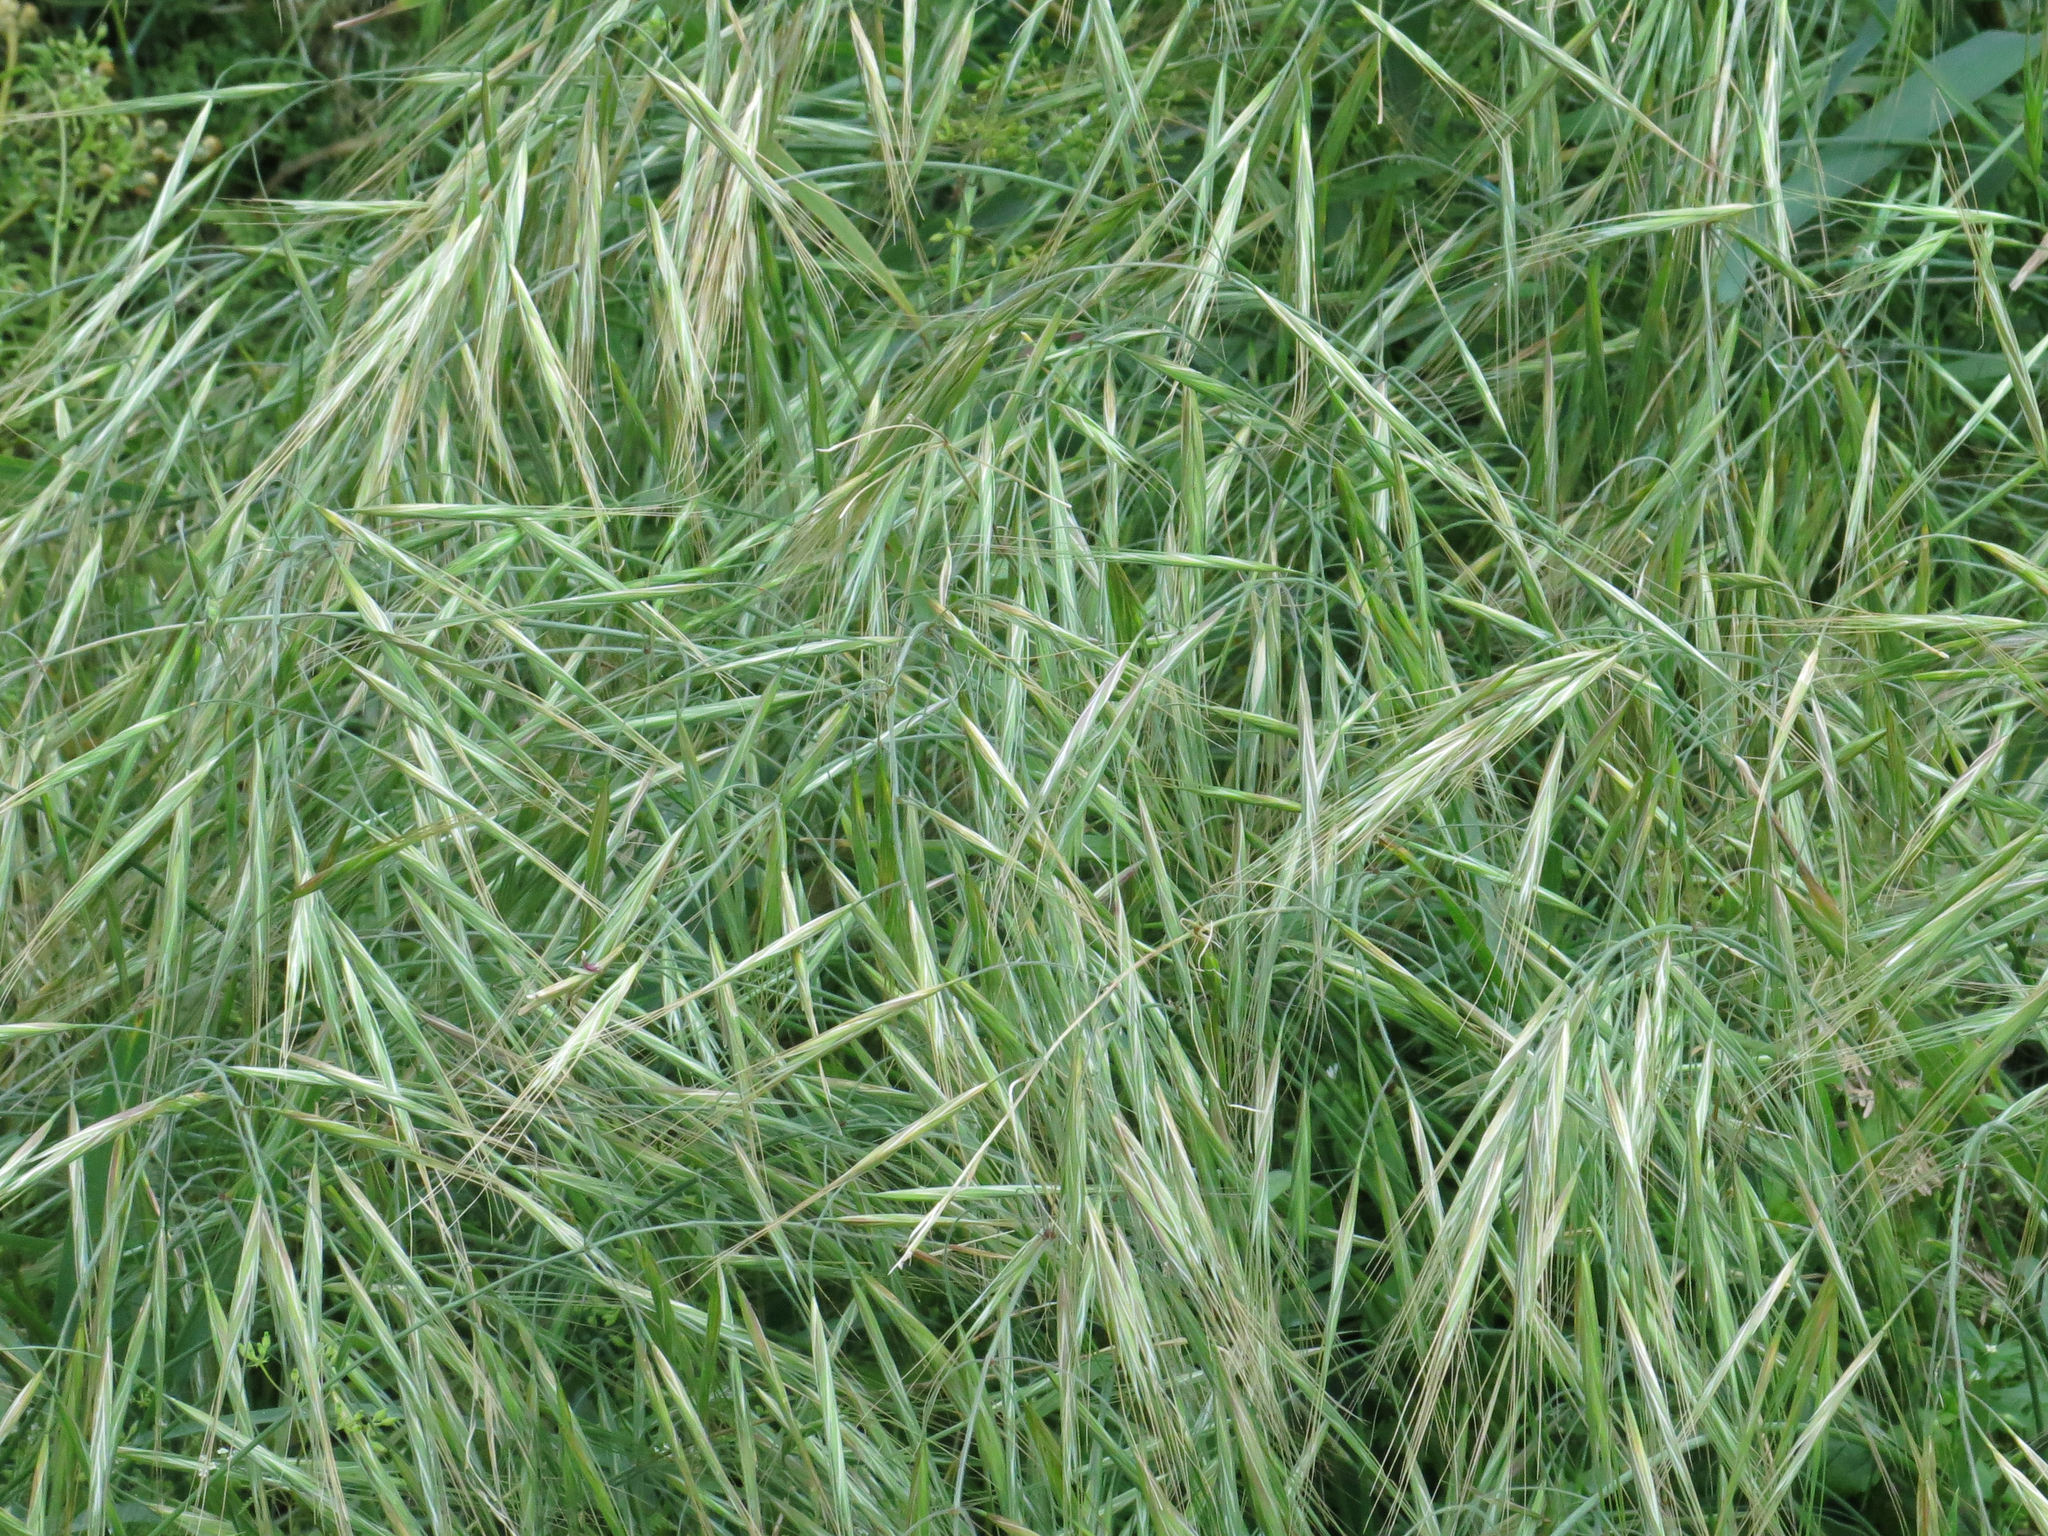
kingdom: Plantae
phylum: Tracheophyta
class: Liliopsida
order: Poales
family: Poaceae
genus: Bromus
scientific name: Bromus diandrus
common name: Ripgut brome
